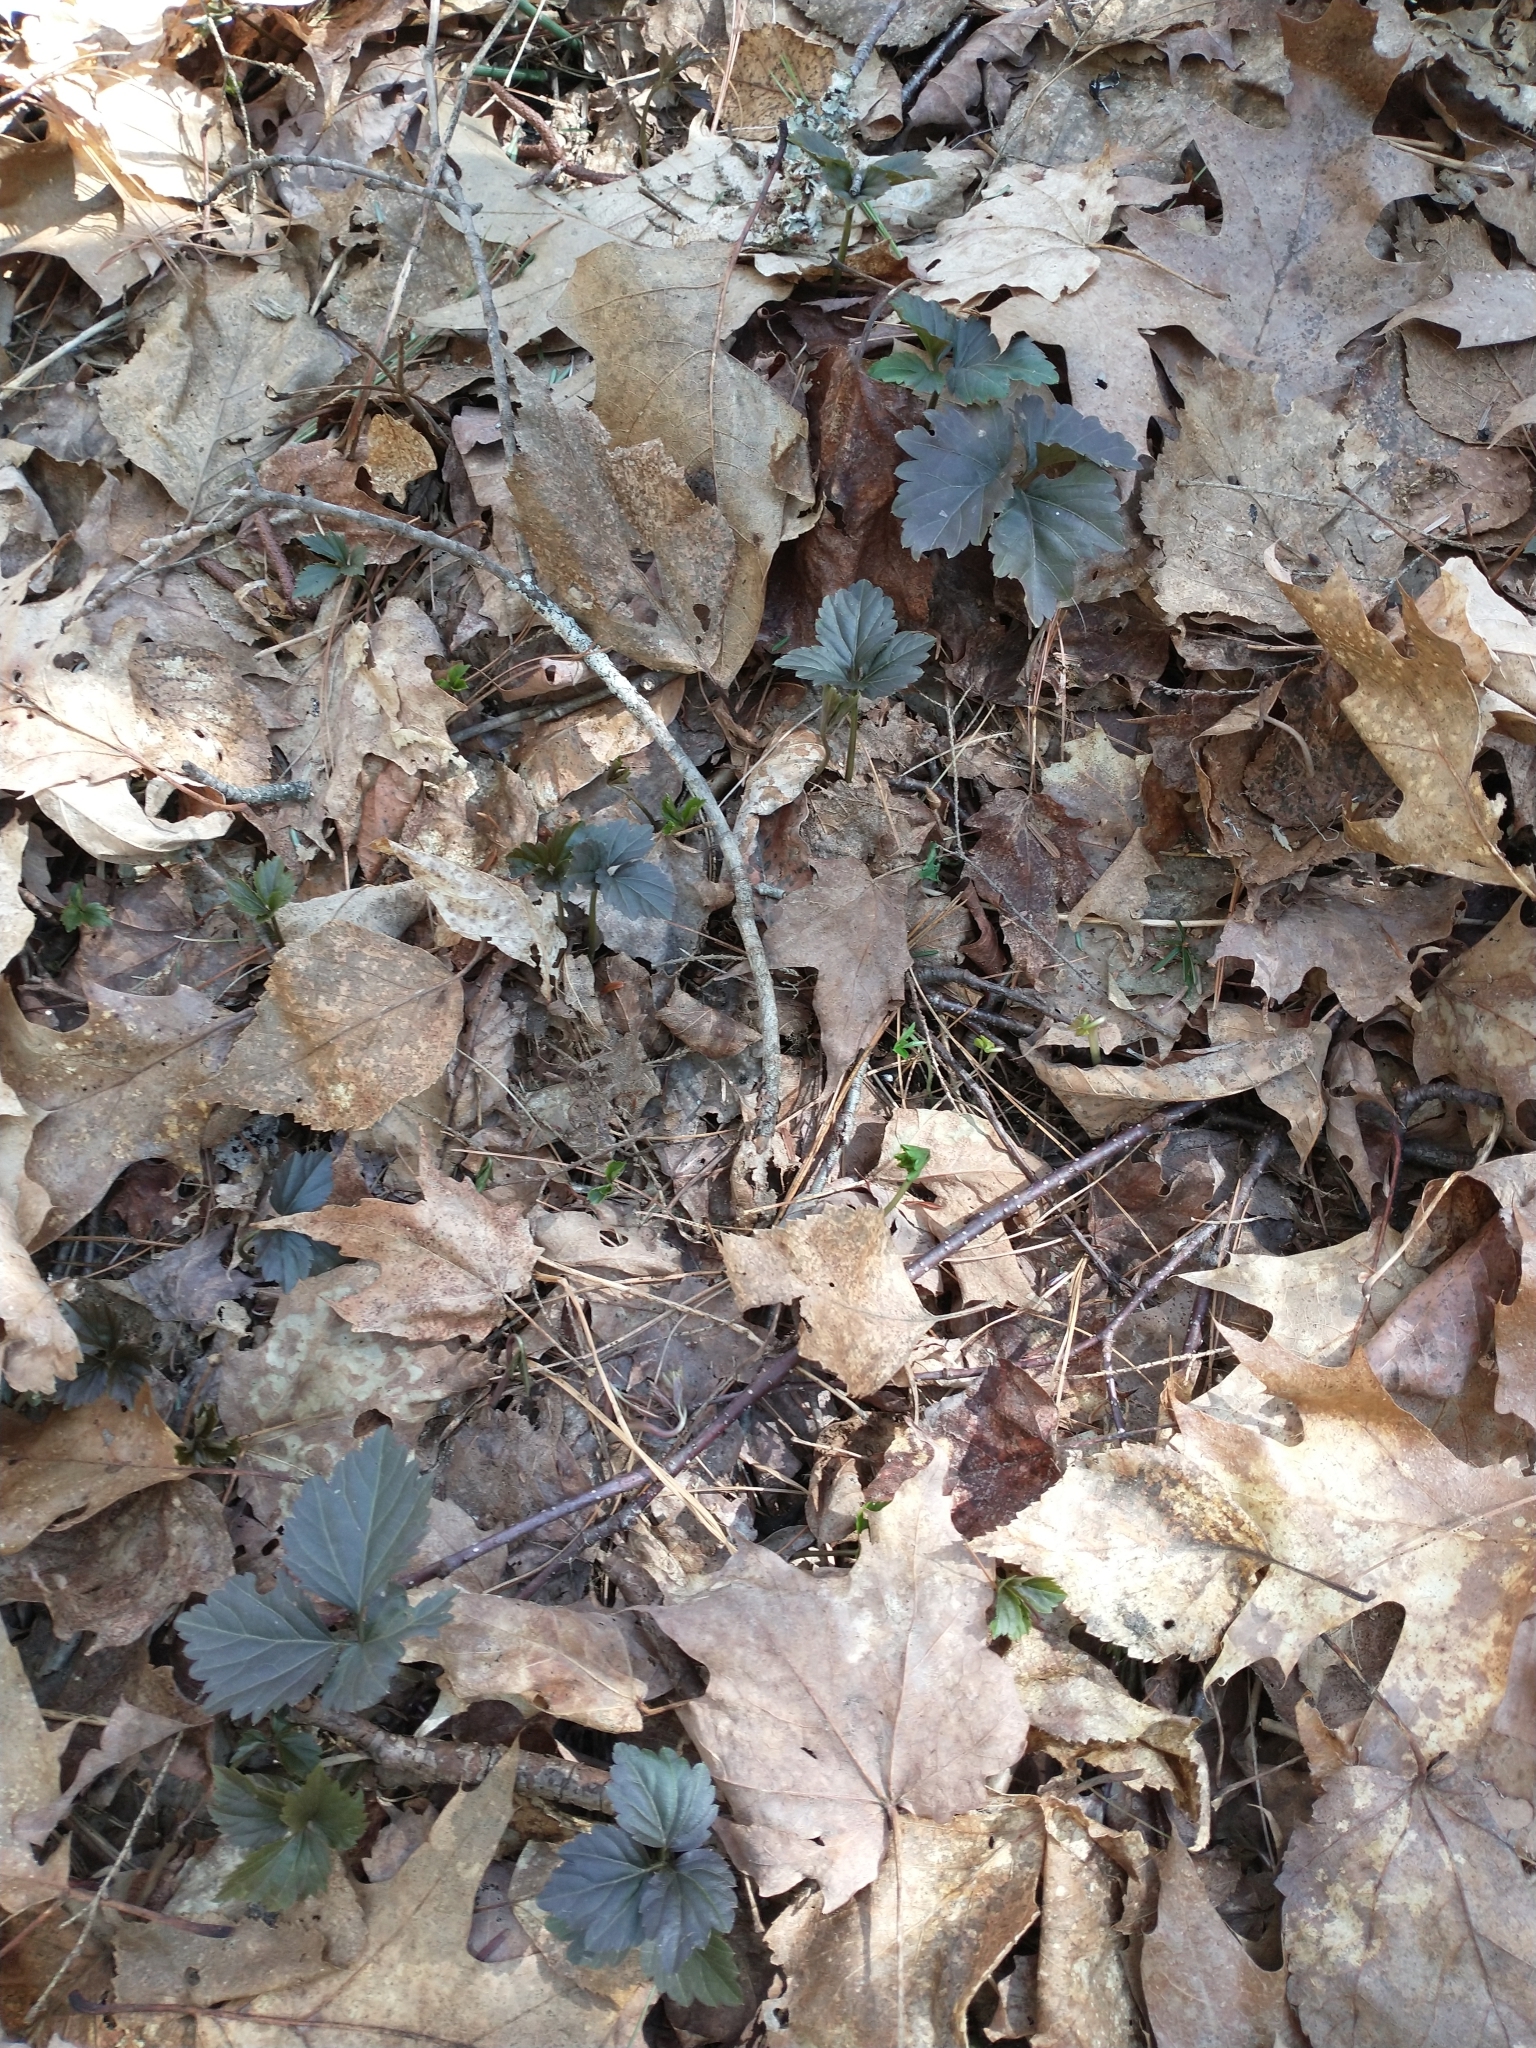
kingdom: Plantae
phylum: Tracheophyta
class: Magnoliopsida
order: Brassicales
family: Brassicaceae
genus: Cardamine
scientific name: Cardamine diphylla
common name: Broad-leaved toothwort
